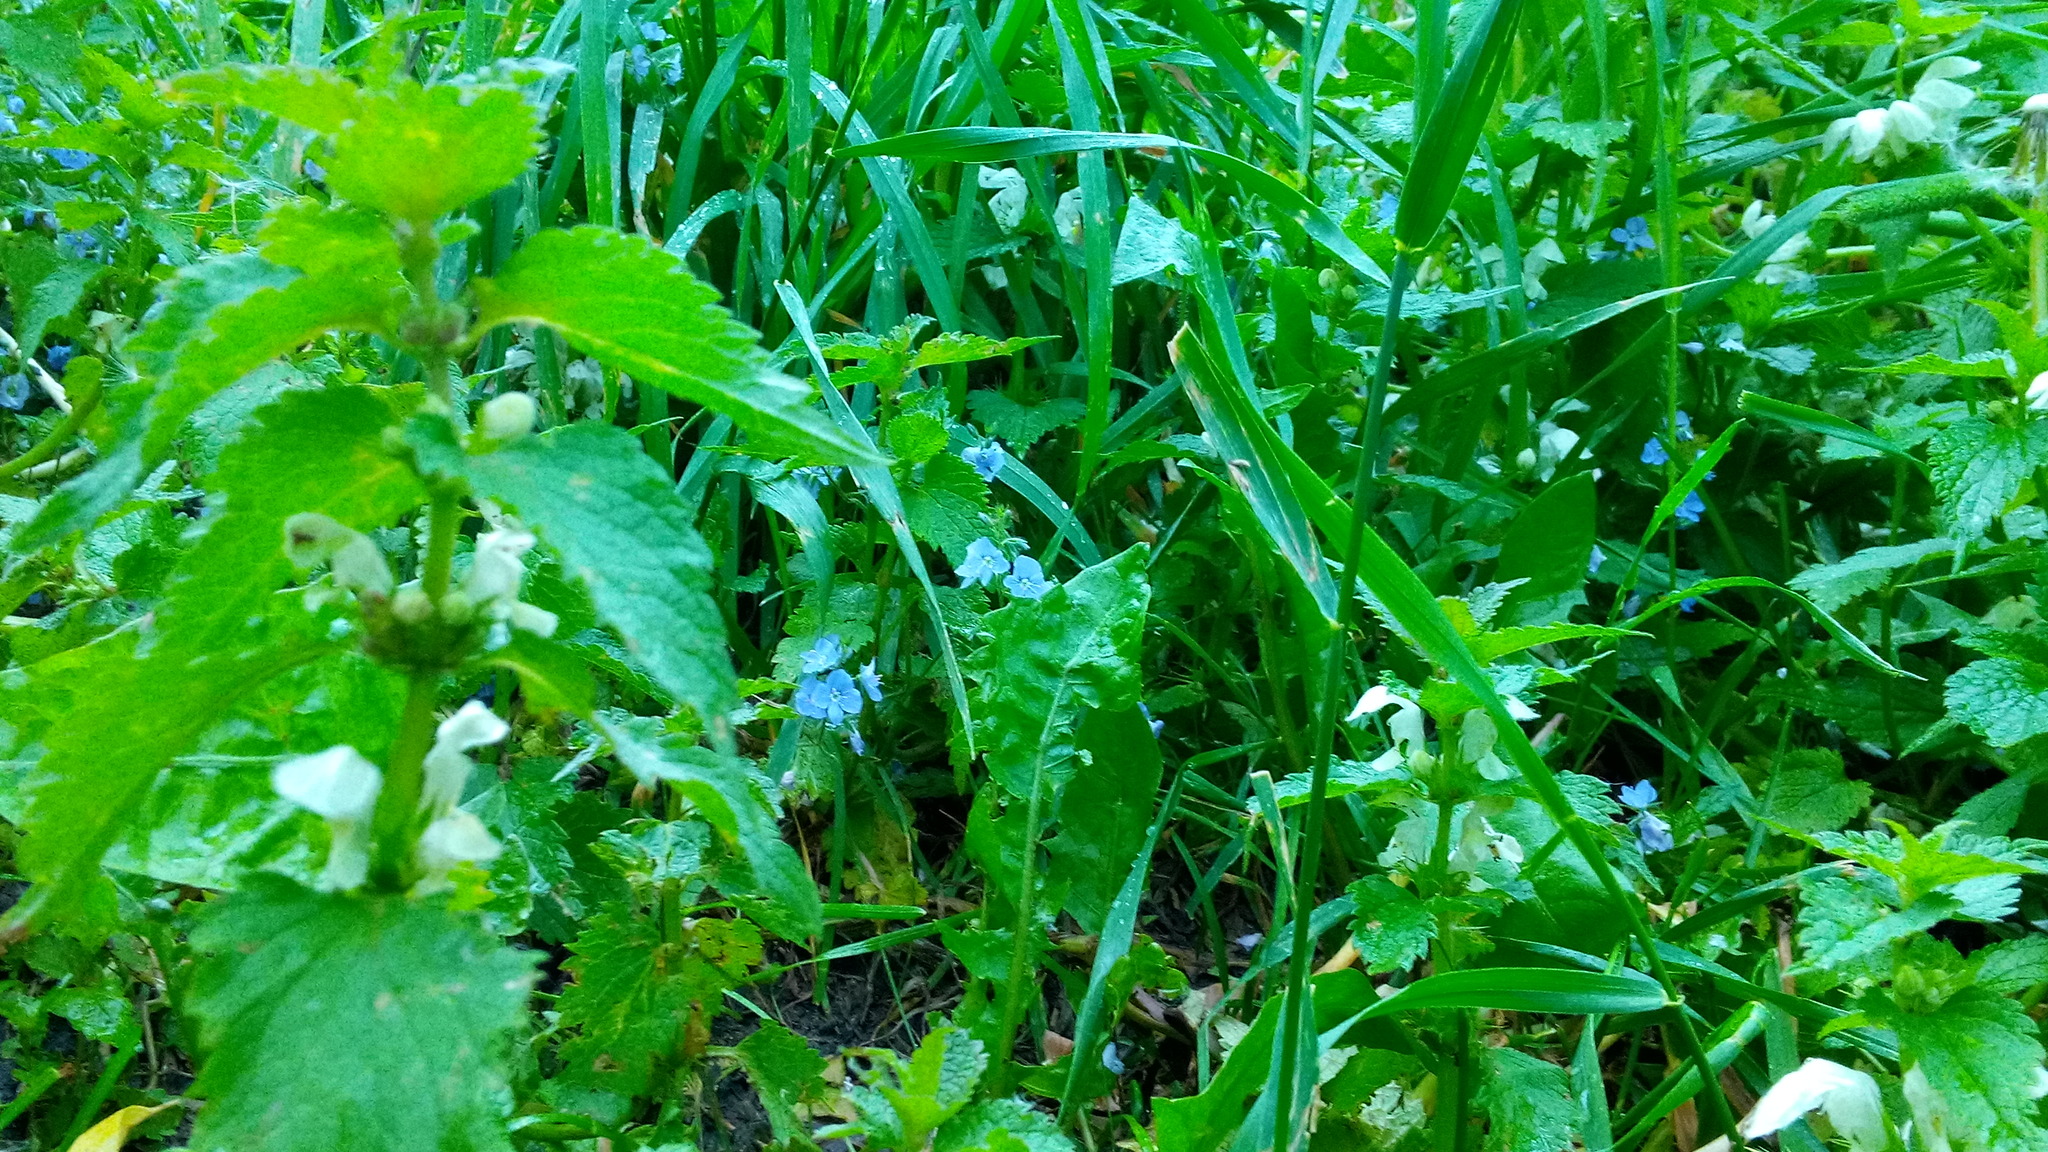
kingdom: Plantae
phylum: Tracheophyta
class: Magnoliopsida
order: Lamiales
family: Lamiaceae
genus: Lamium
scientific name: Lamium album
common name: White dead-nettle
